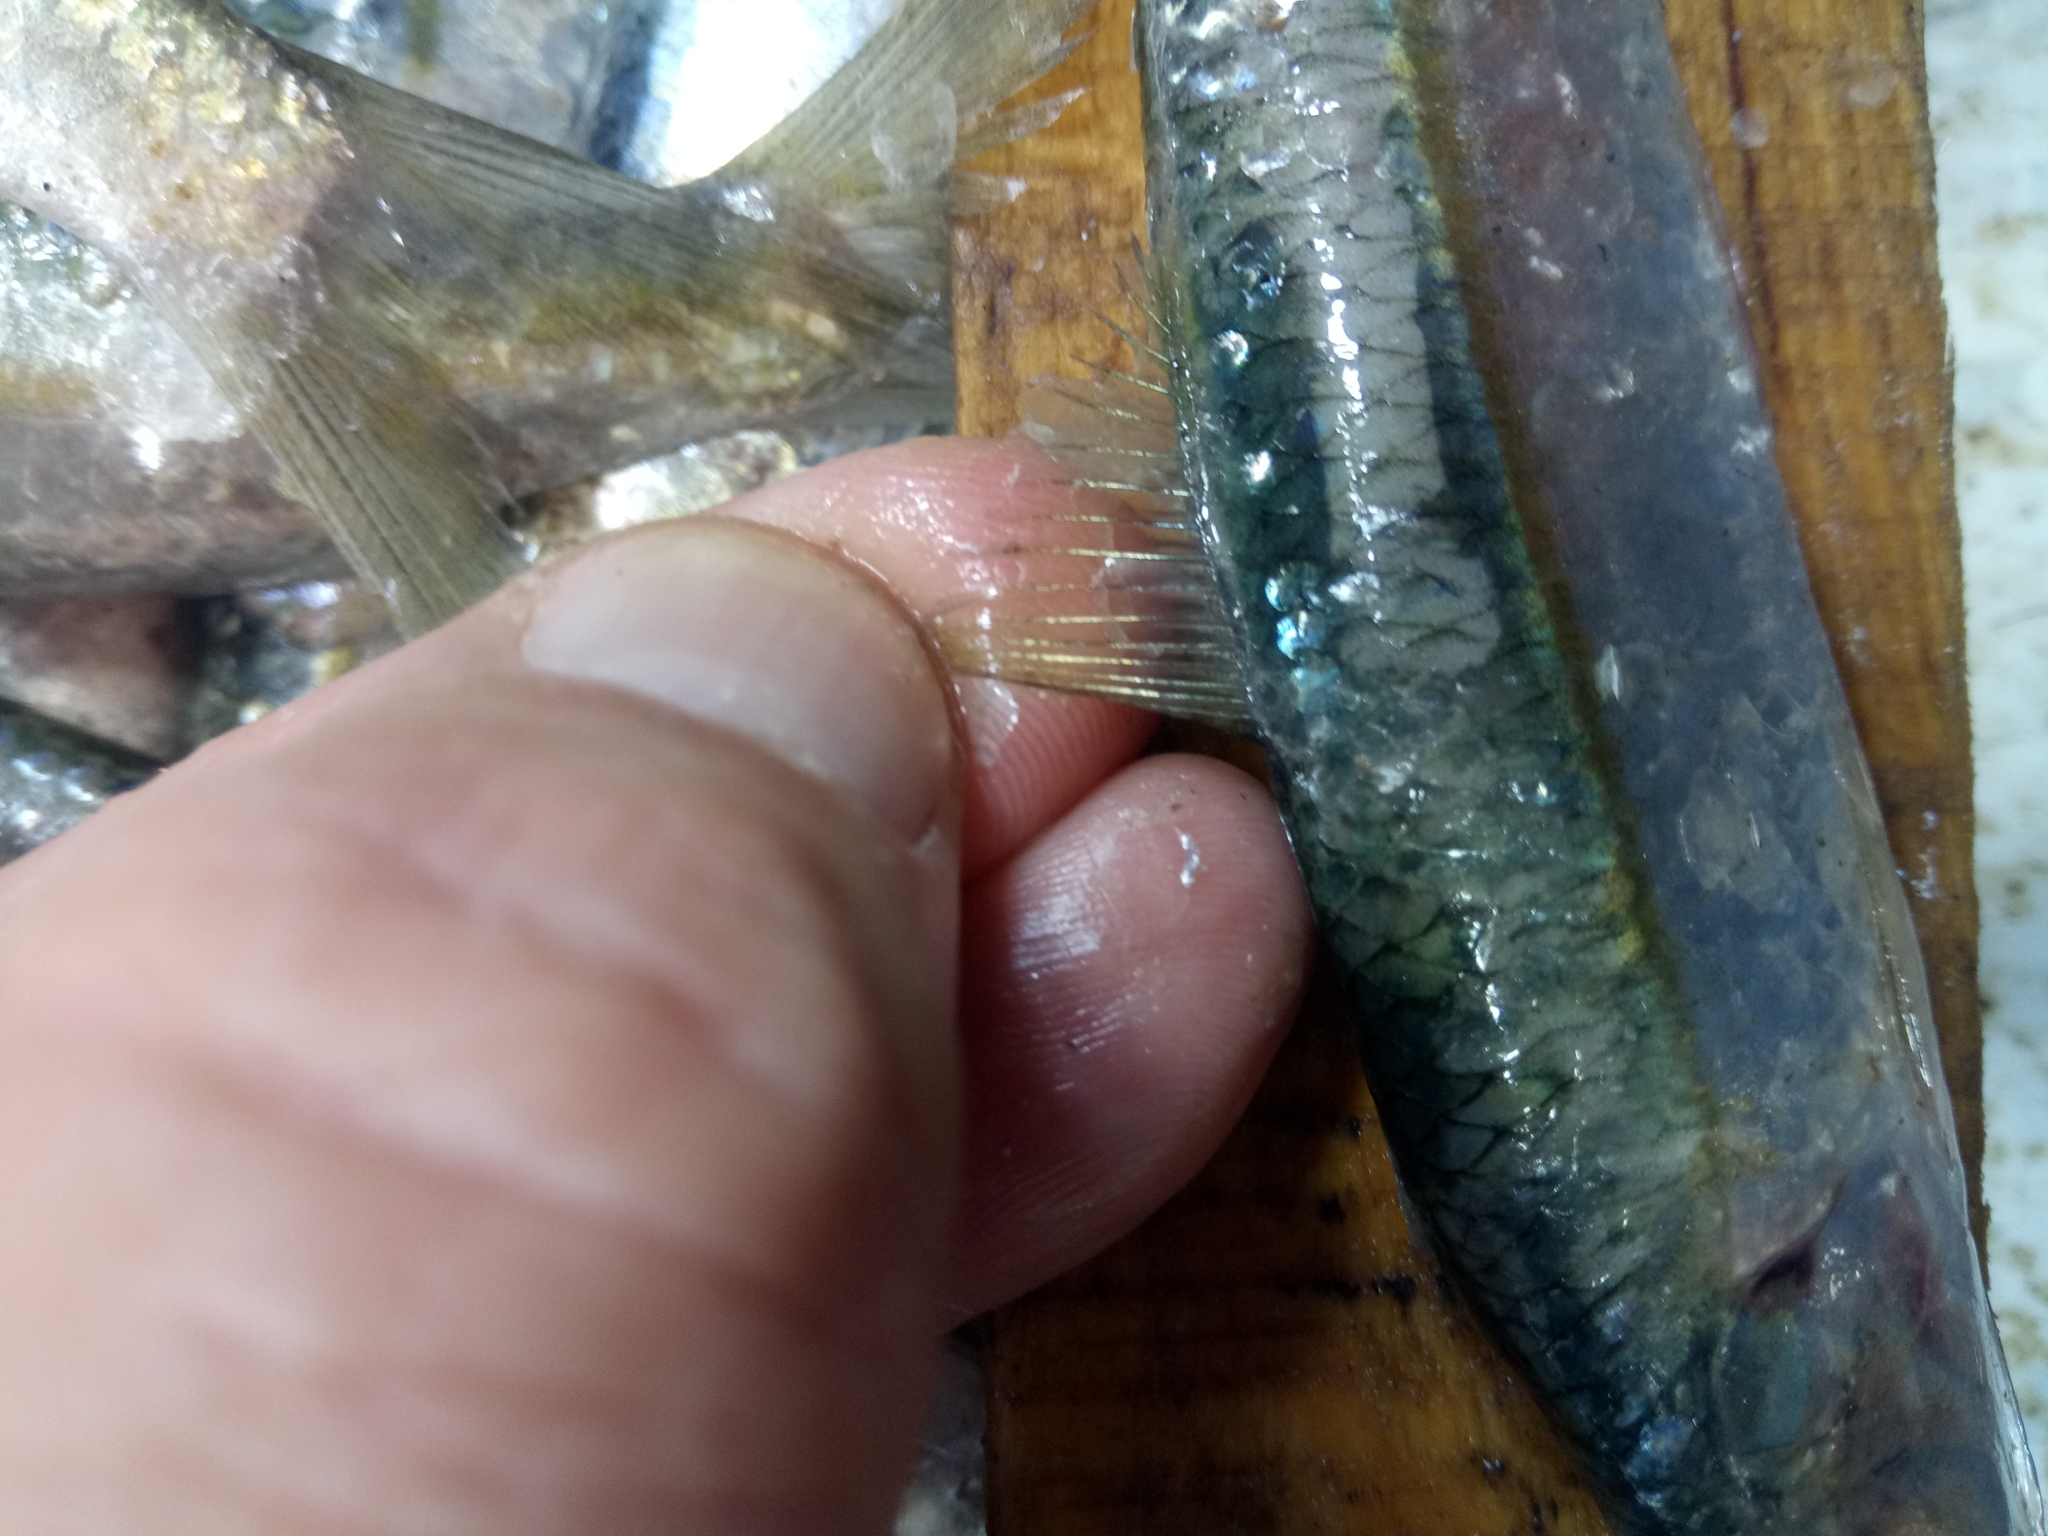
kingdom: Animalia
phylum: Chordata
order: Clupeiformes
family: Clupeidae
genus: Sardinella
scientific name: Sardinella aurita
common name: Round sardinella
